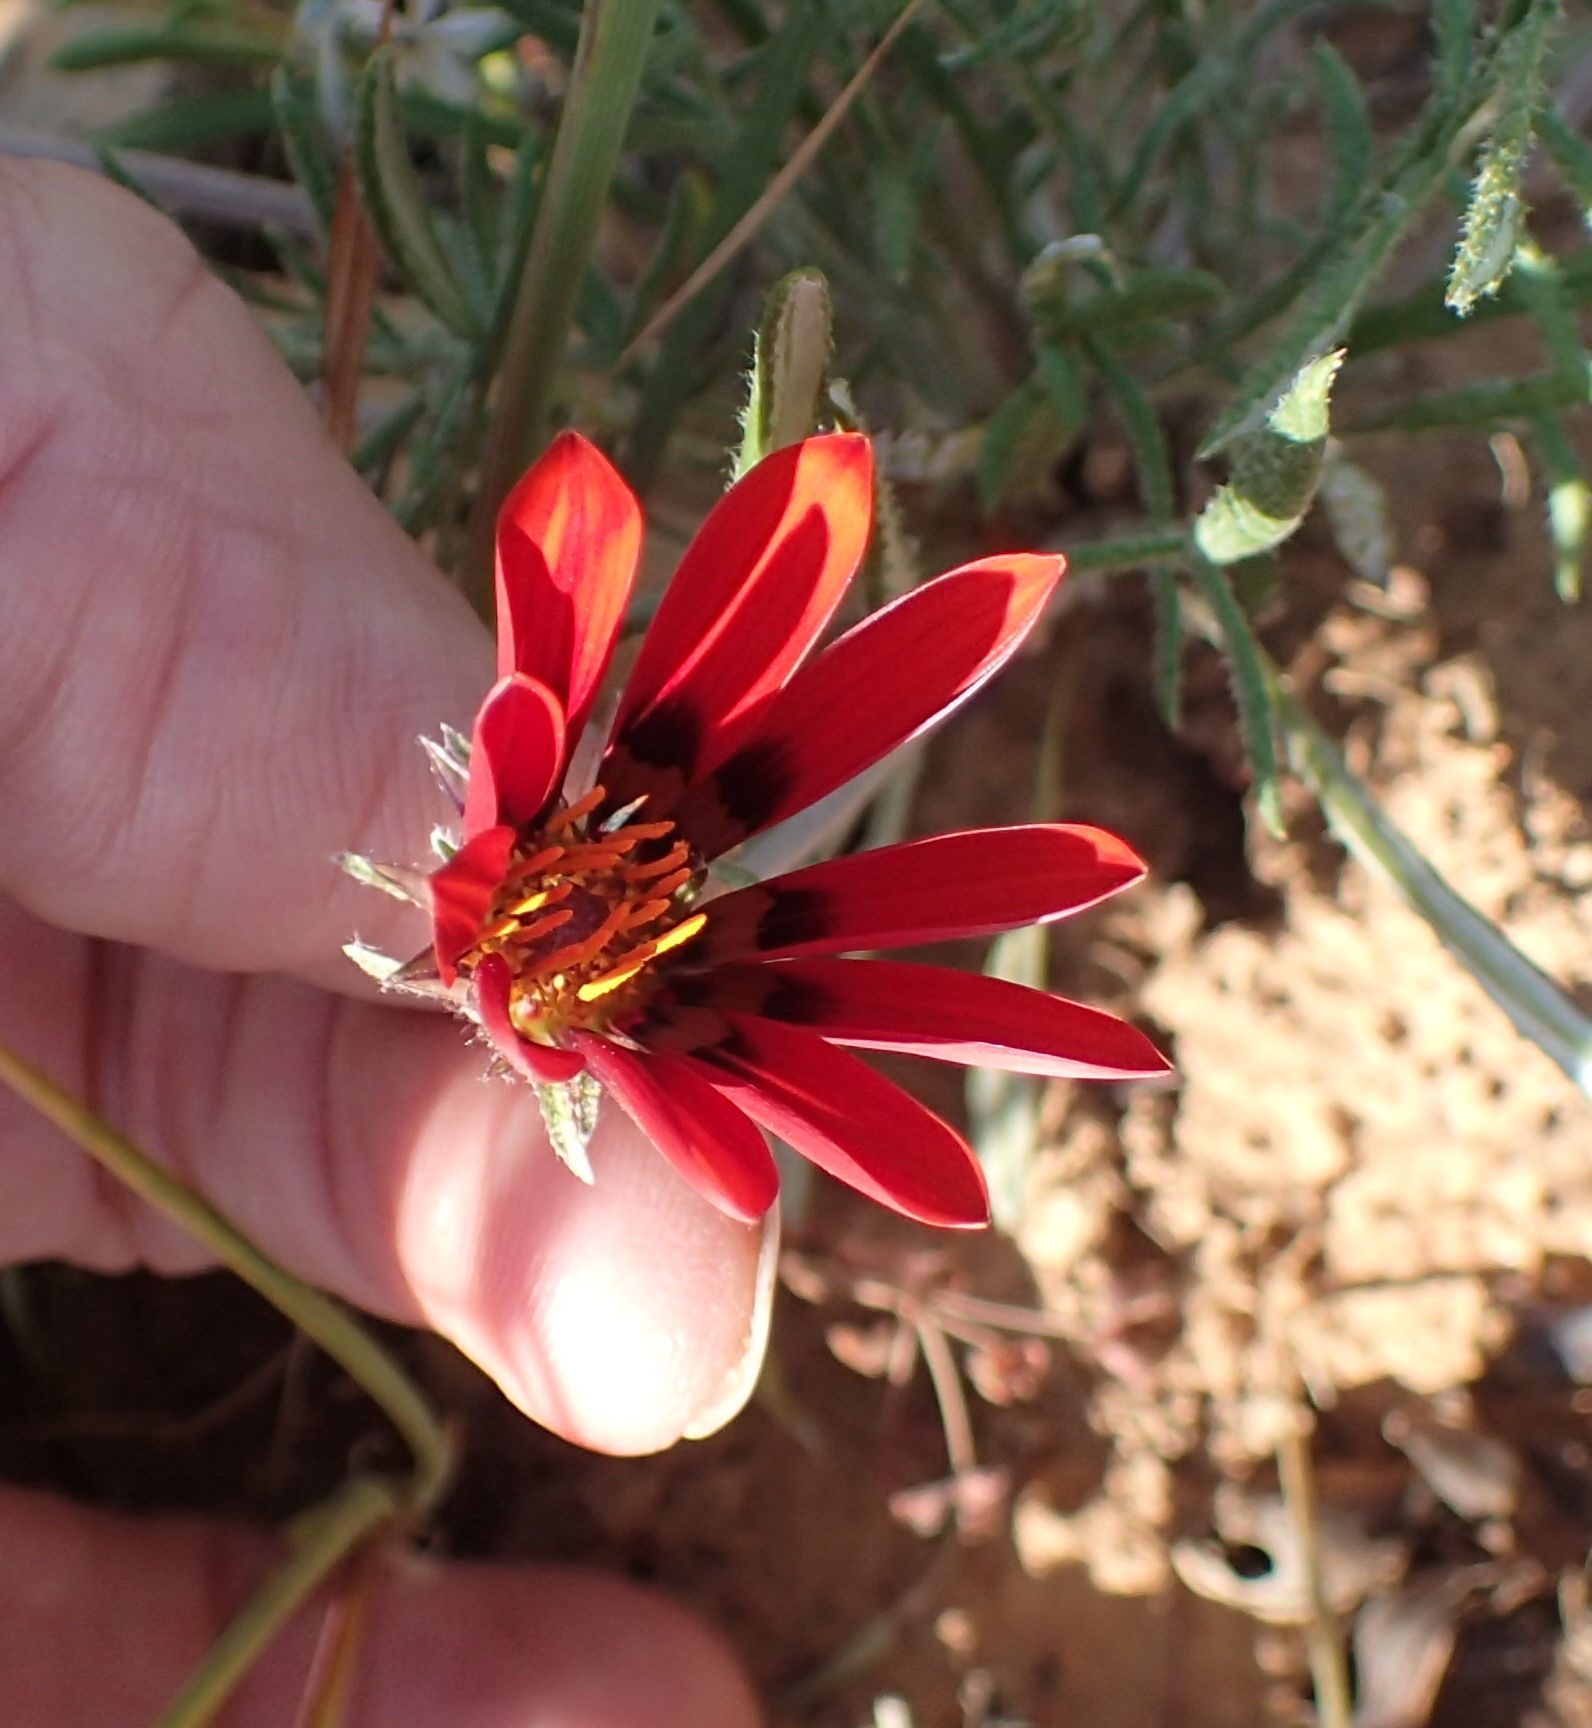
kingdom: Plantae
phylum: Tracheophyta
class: Magnoliopsida
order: Asterales
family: Asteraceae
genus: Gazania
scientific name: Gazania rigida
